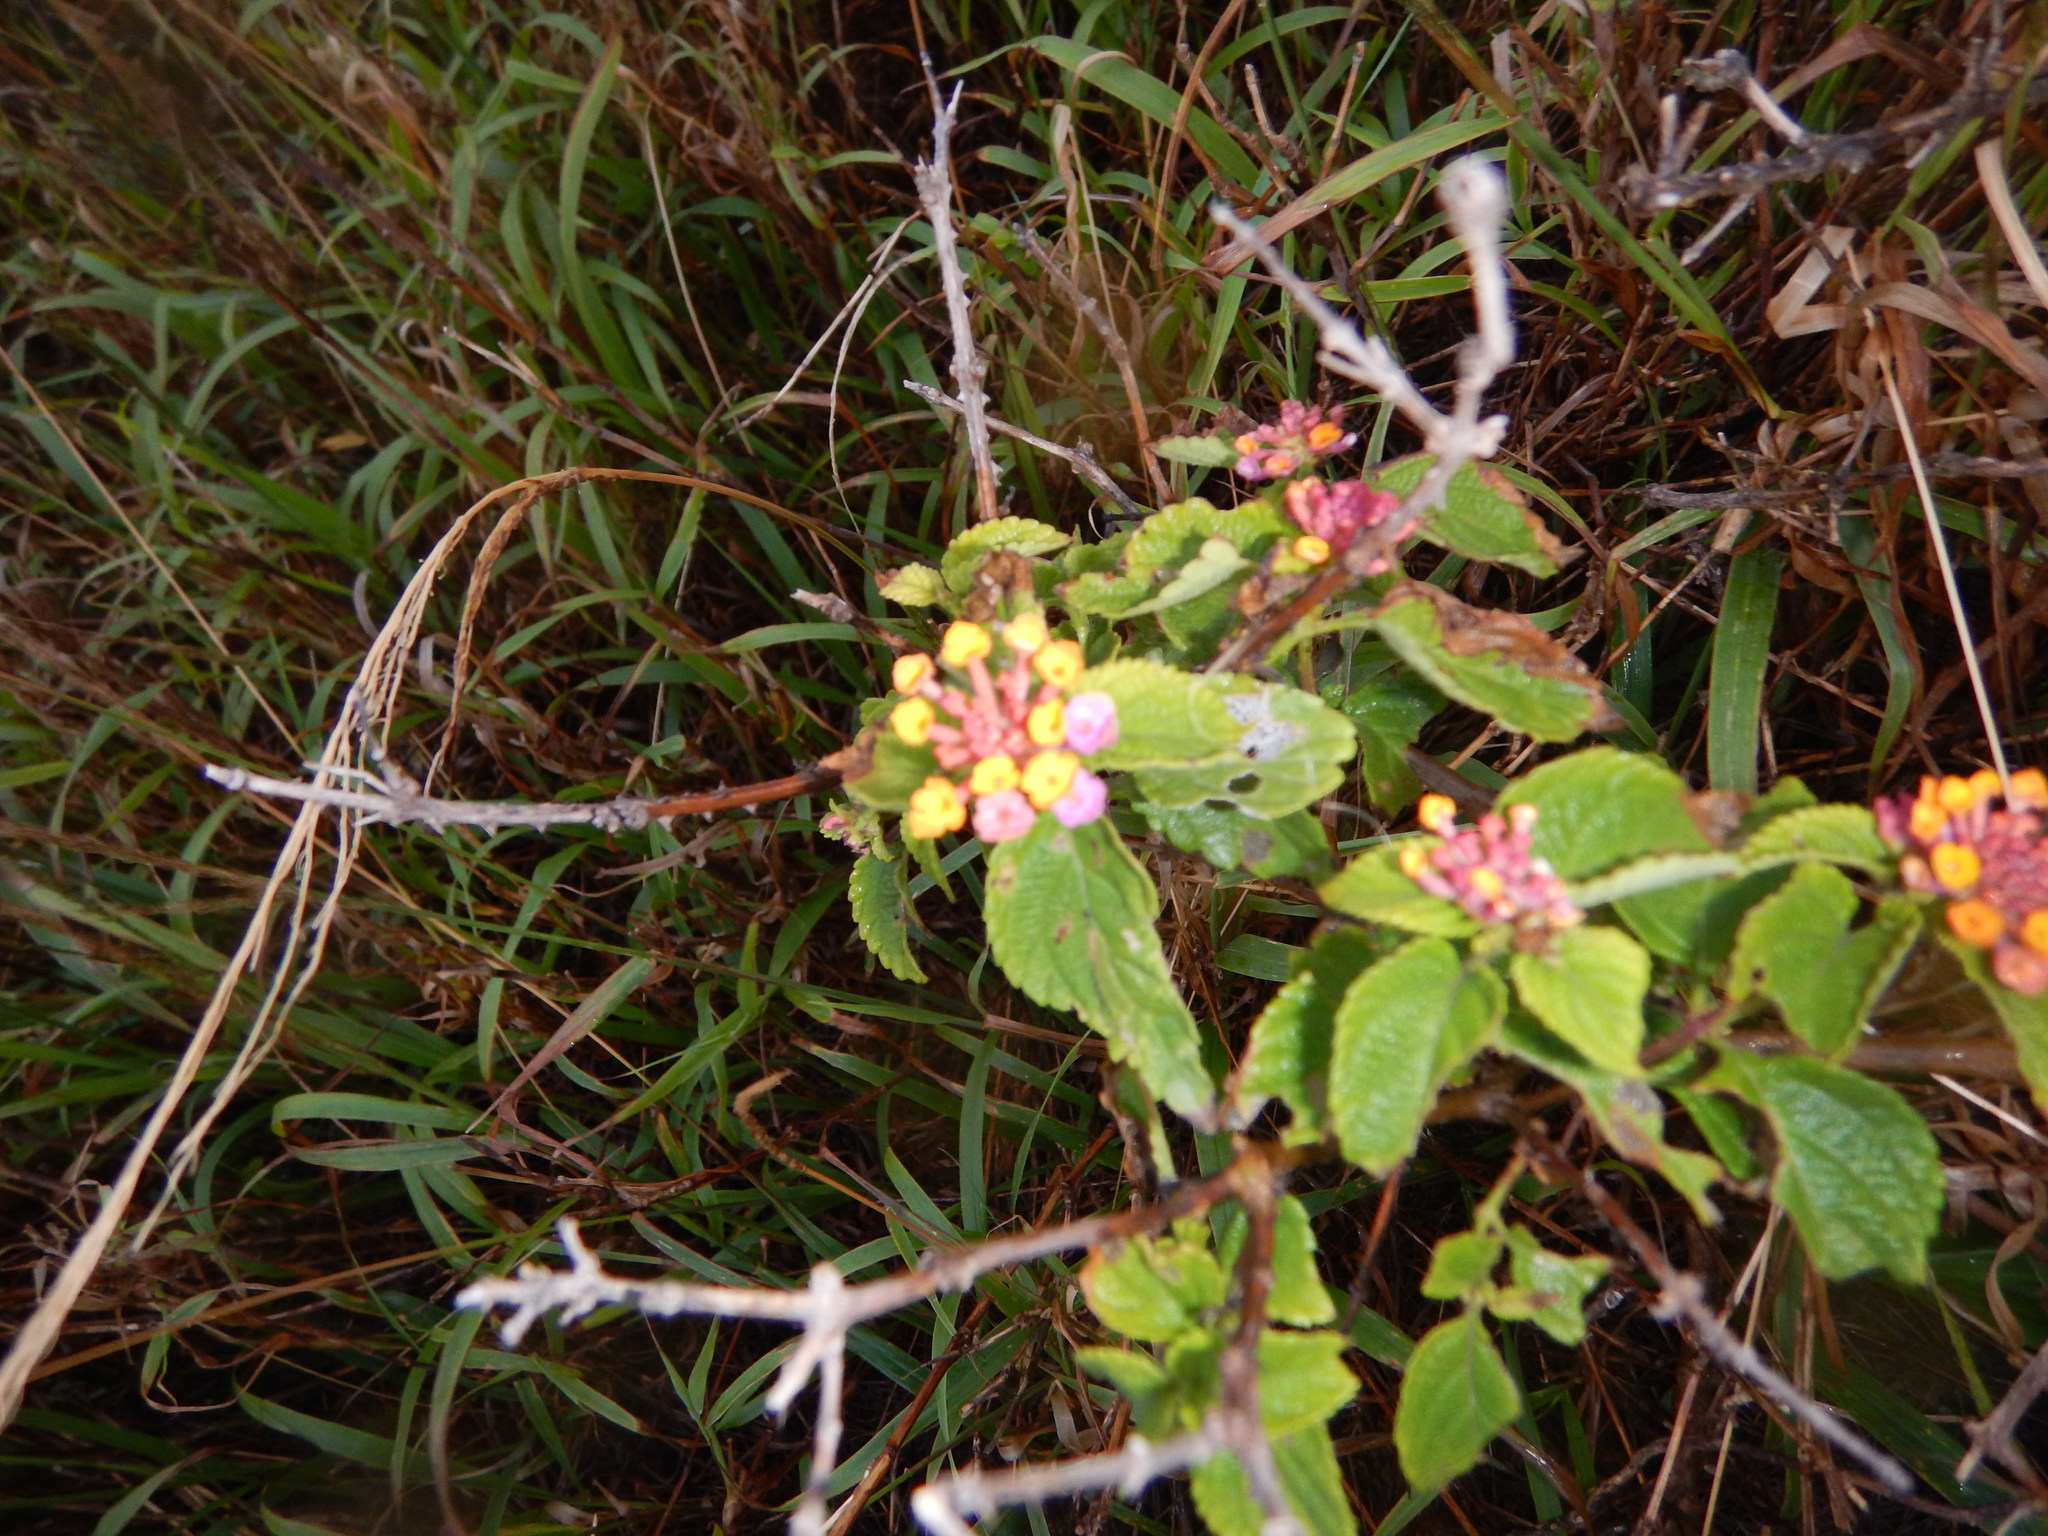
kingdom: Plantae
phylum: Tracheophyta
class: Magnoliopsida
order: Lamiales
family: Verbenaceae
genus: Lantana
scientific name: Lantana camara
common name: Lantana
